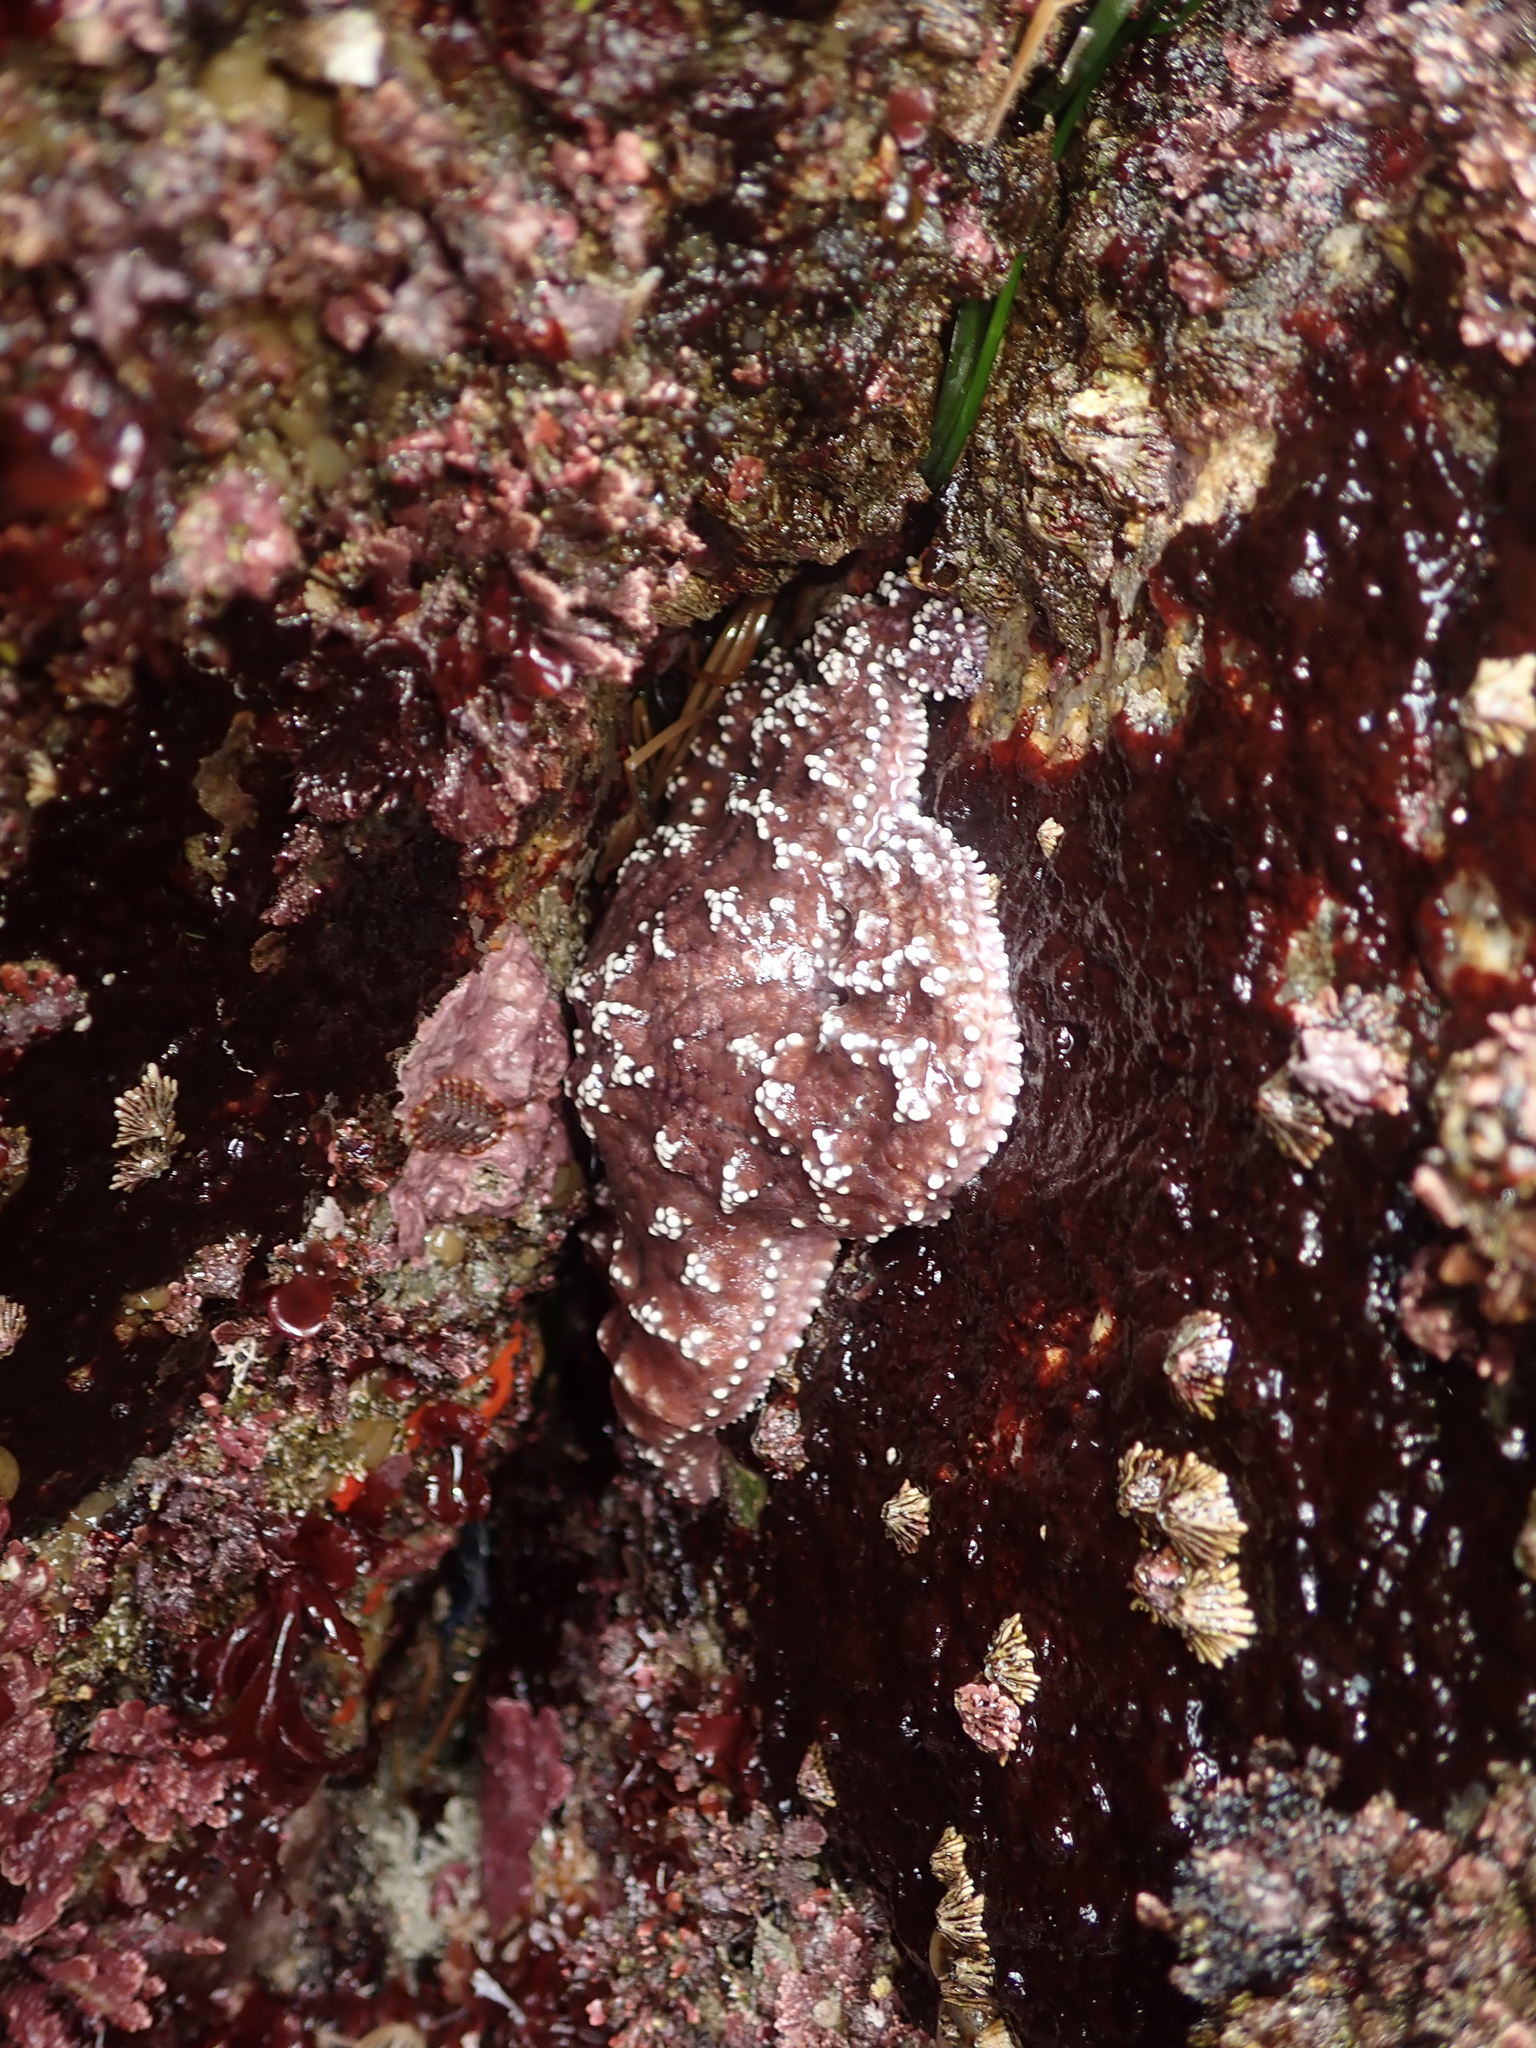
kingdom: Animalia
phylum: Echinodermata
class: Asteroidea
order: Forcipulatida
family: Asteriidae
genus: Pisaster
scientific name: Pisaster ochraceus
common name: Ochre stars
